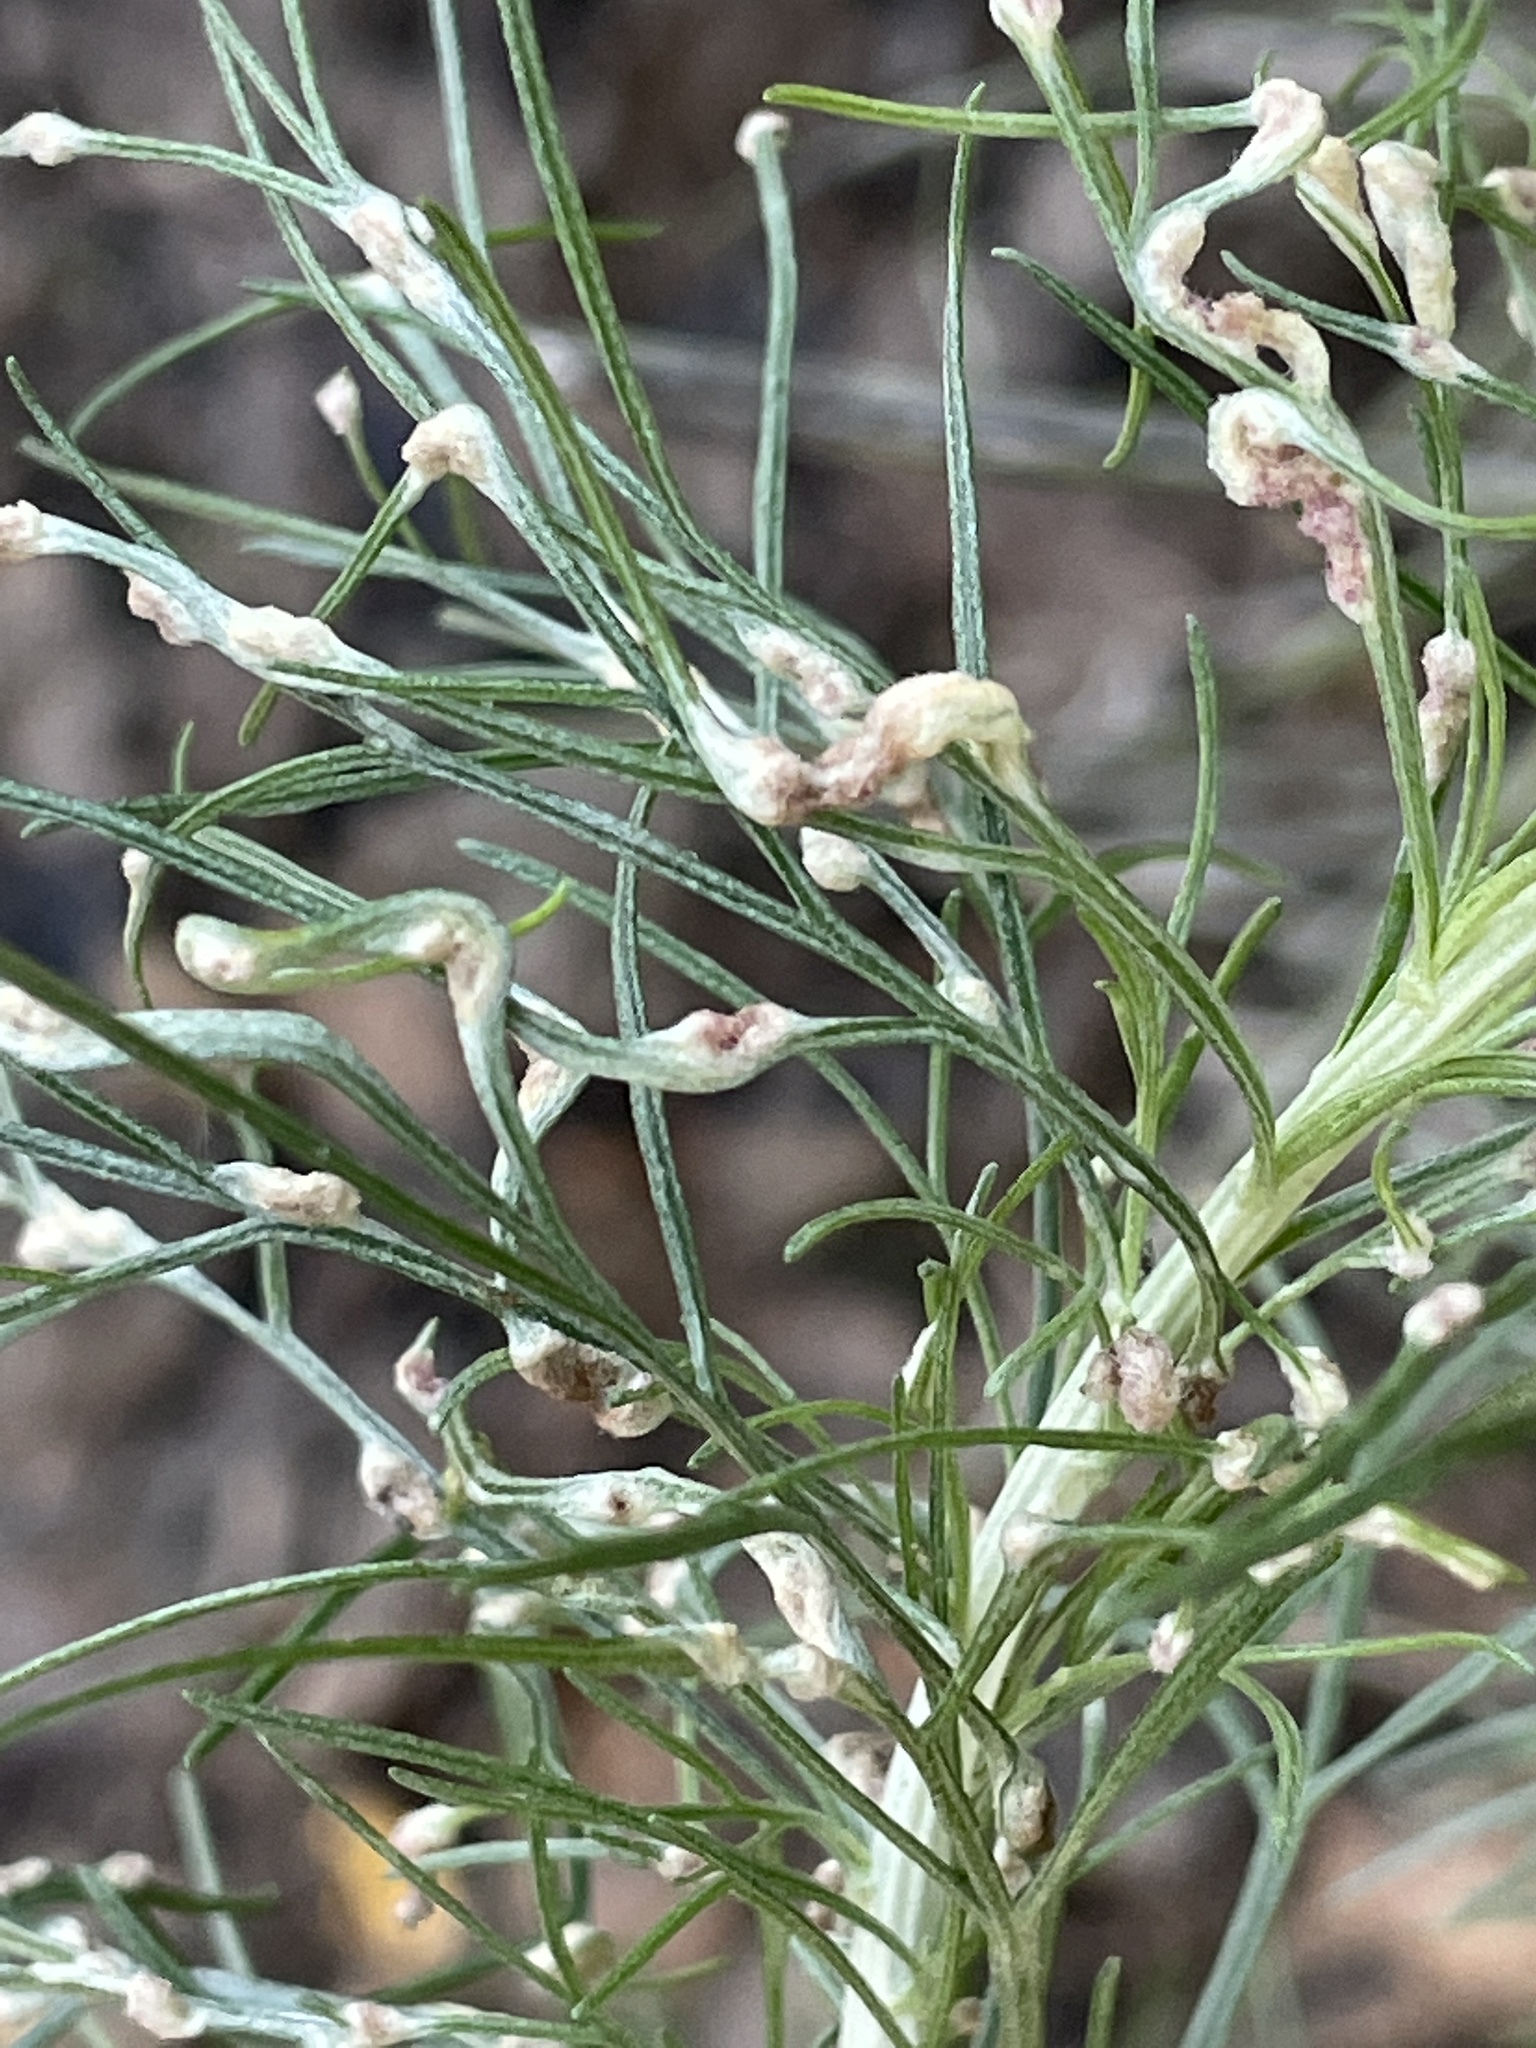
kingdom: Animalia
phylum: Arthropoda
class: Arachnida
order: Trombidiformes
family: Eriophyidae
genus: Aceria
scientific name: Aceria
